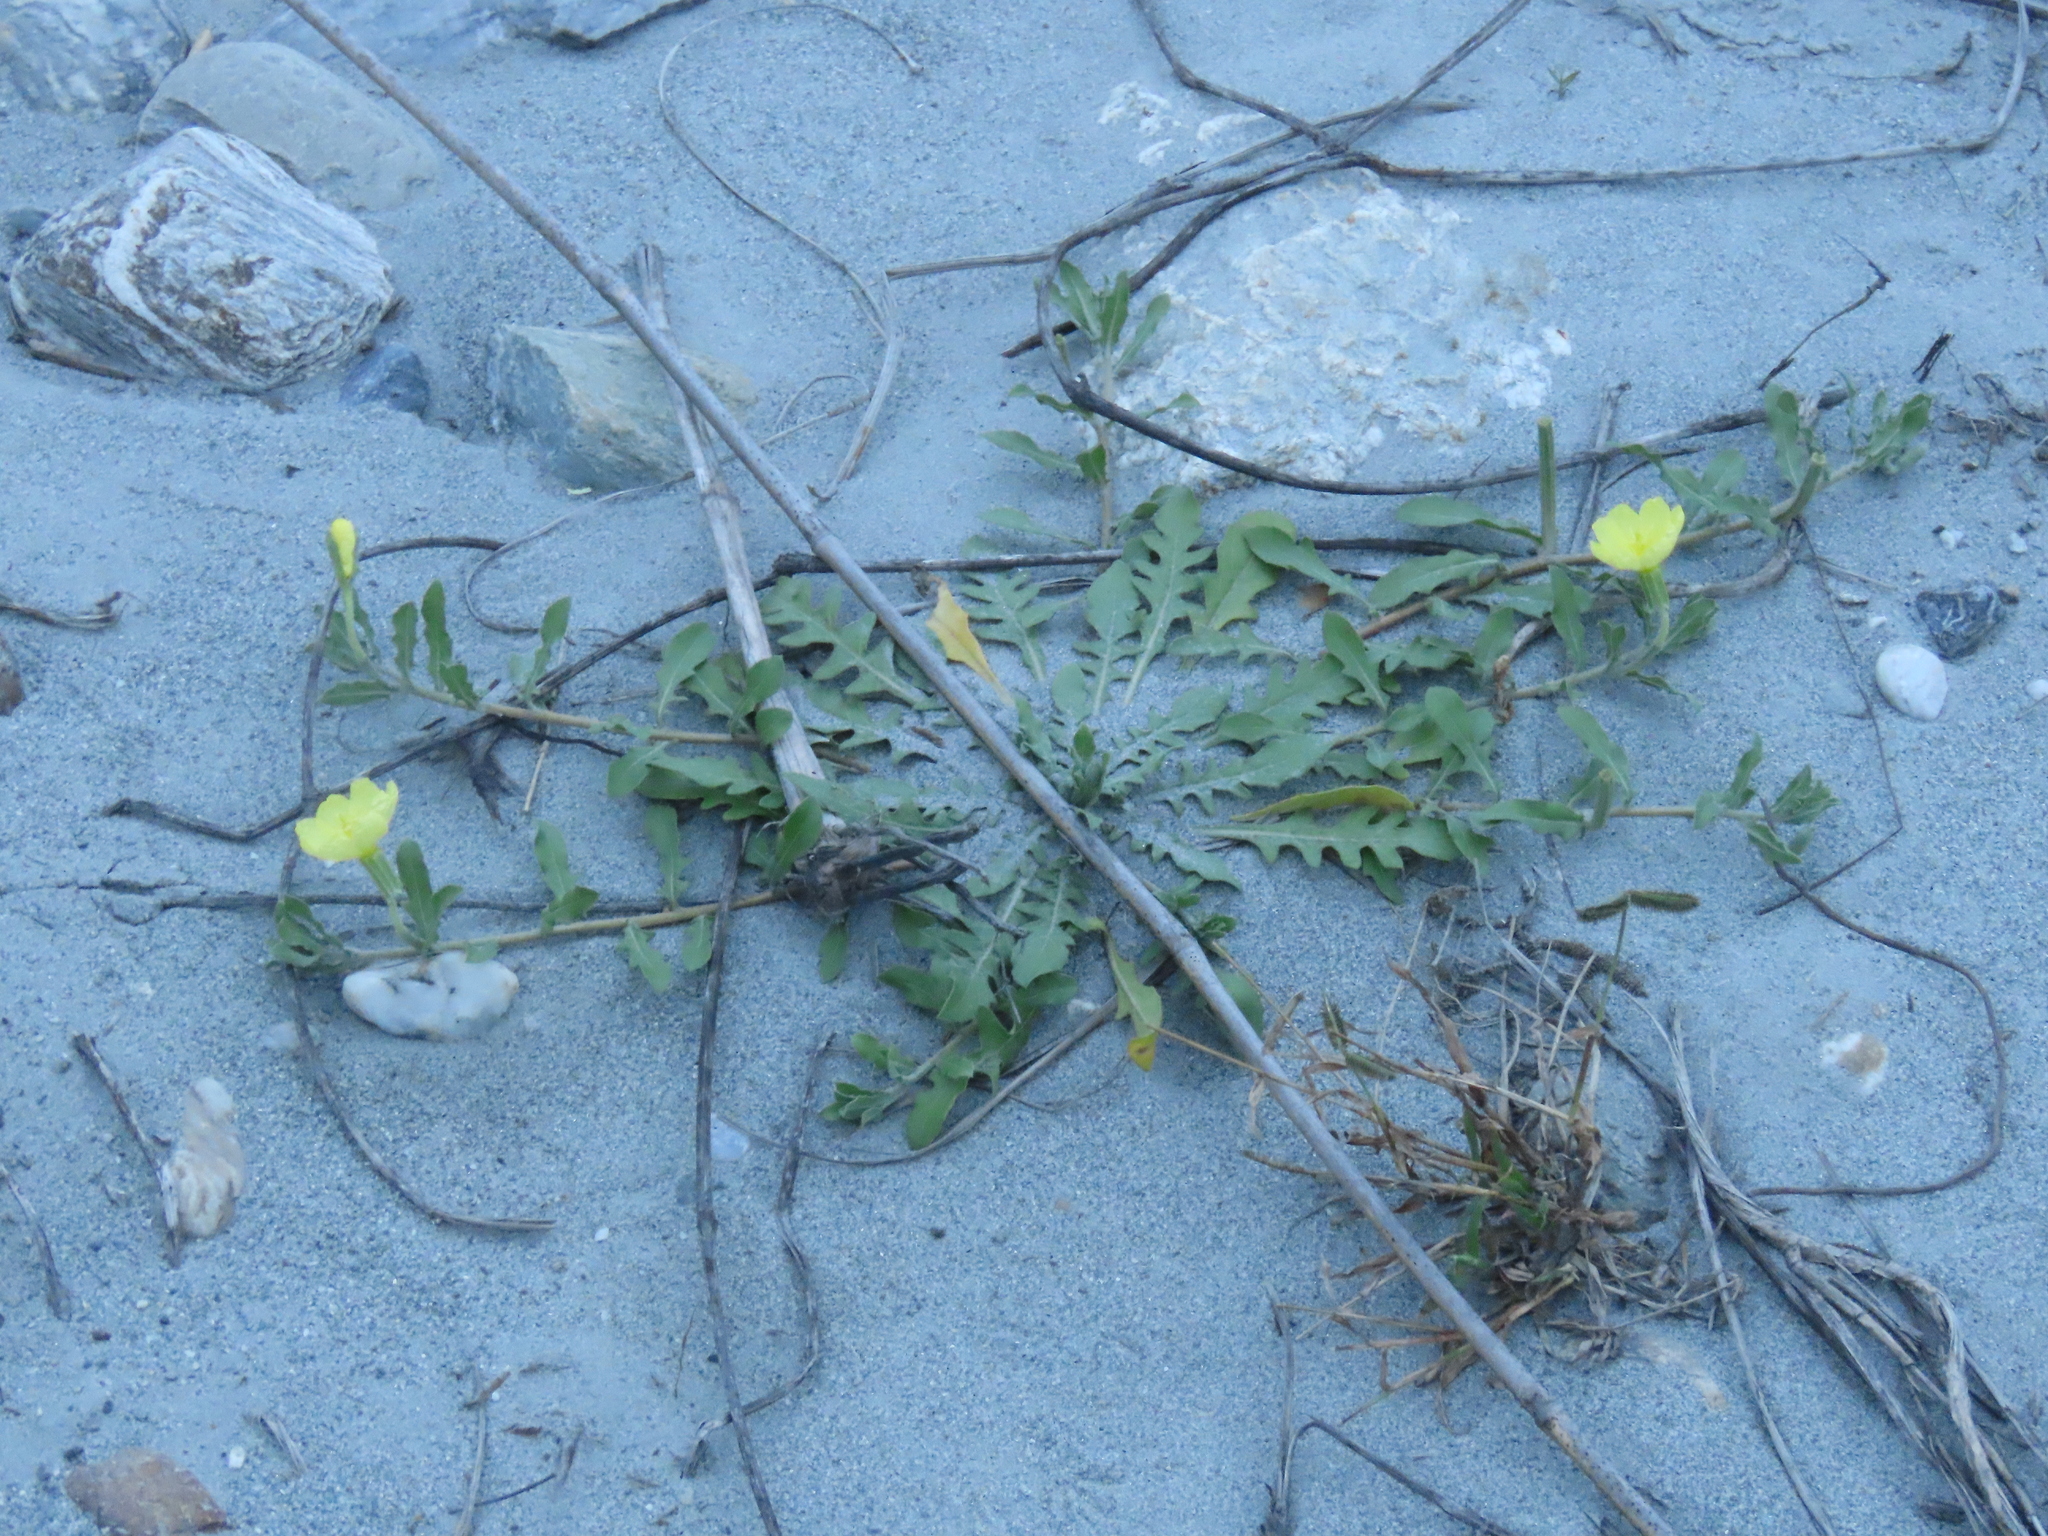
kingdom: Plantae
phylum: Tracheophyta
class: Magnoliopsida
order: Myrtales
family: Onagraceae
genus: Oenothera
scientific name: Oenothera laciniata
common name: Cut-leaved evening-primrose
